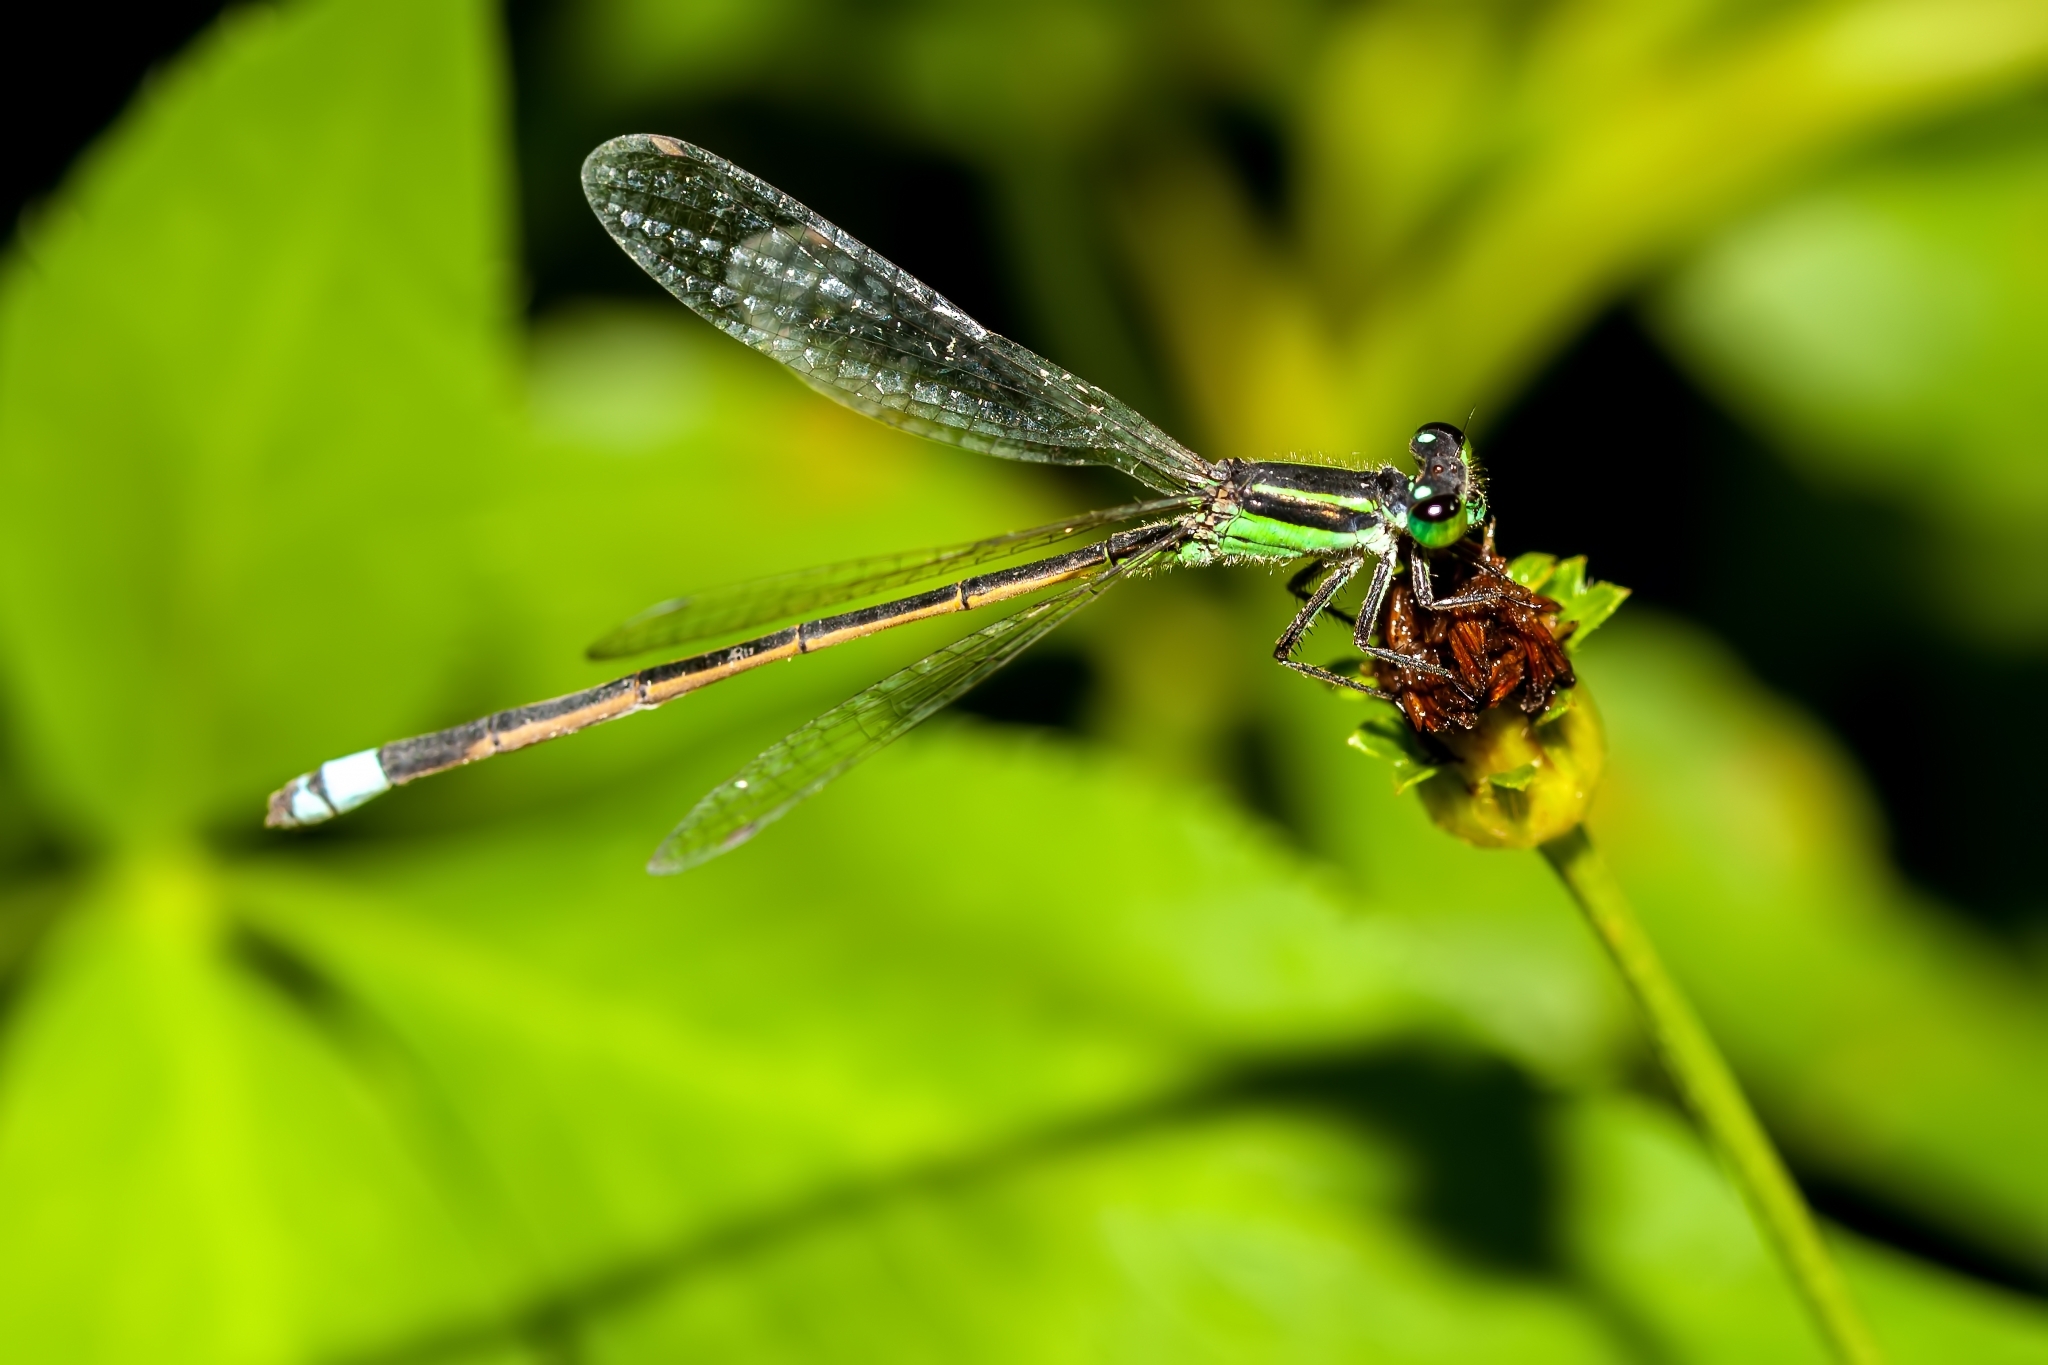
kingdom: Animalia
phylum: Arthropoda
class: Insecta
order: Odonata
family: Coenagrionidae
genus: Ischnura
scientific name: Ischnura ramburii
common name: Rambur's forktail
